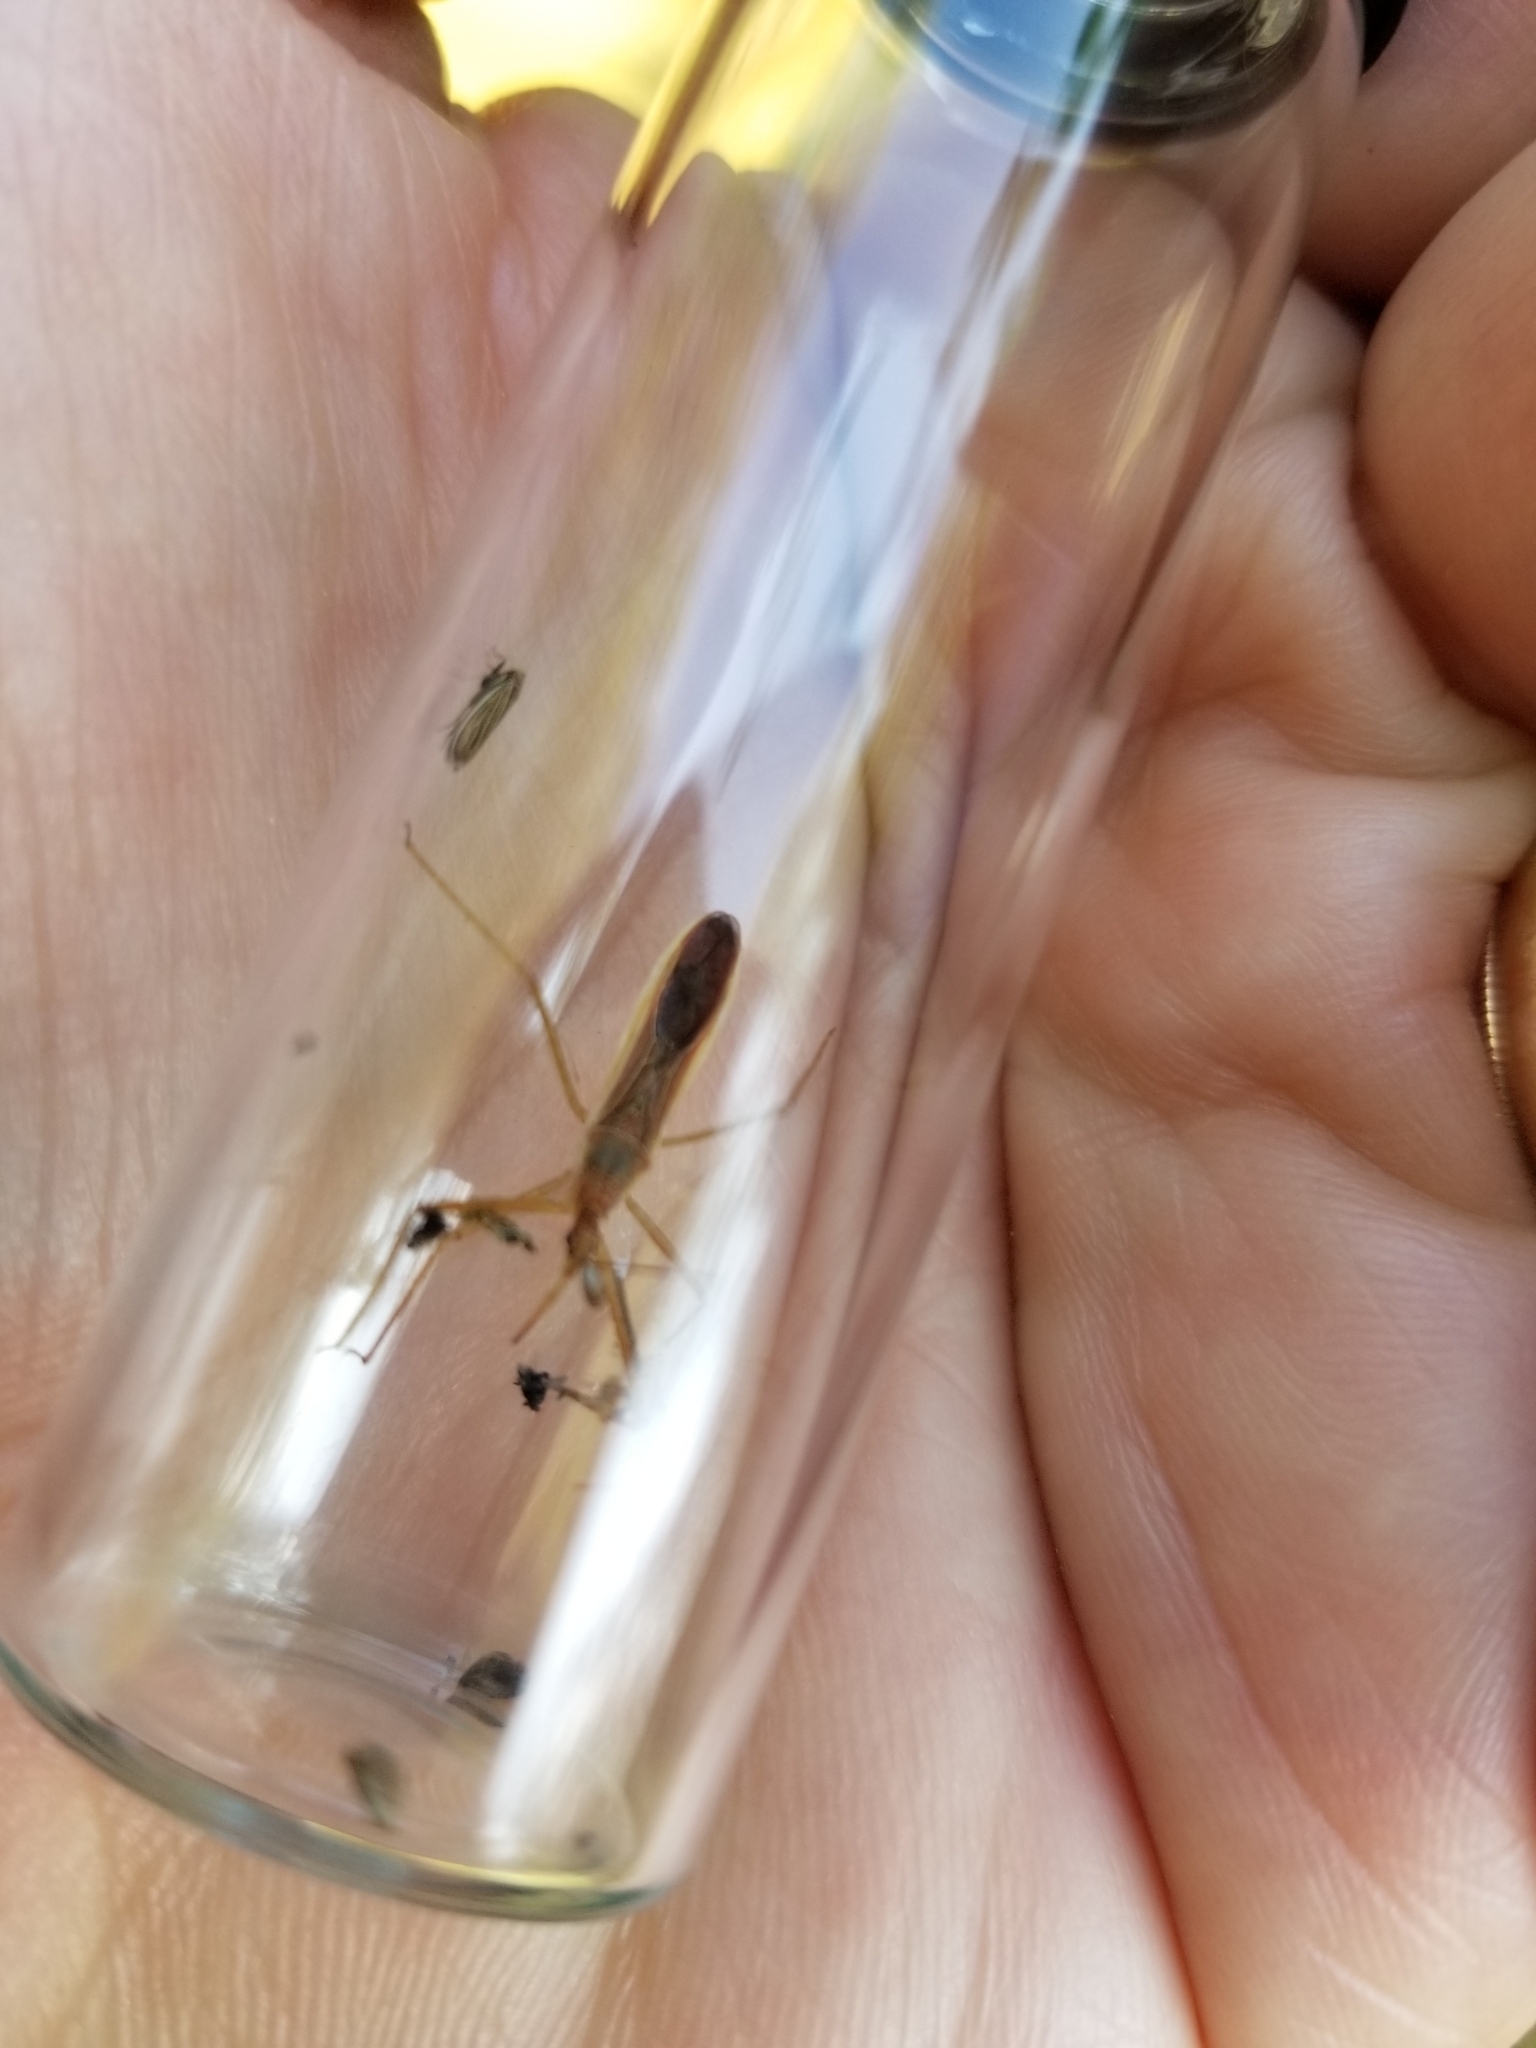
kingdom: Animalia
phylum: Arthropoda
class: Insecta
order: Hemiptera
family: Reduviidae
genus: Zelus
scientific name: Zelus cervicalis
